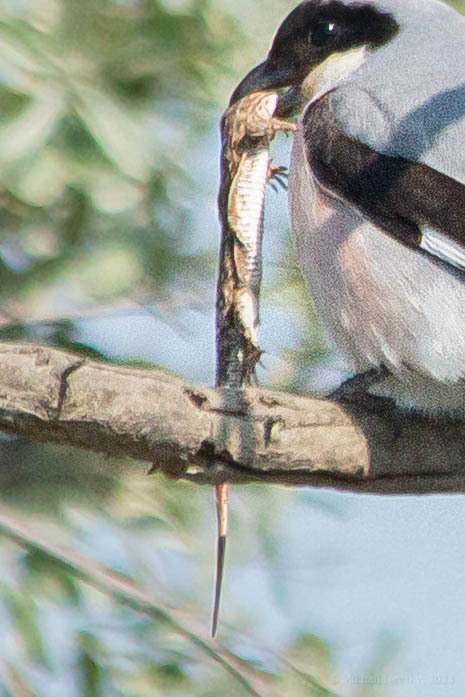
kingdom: Animalia
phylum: Chordata
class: Squamata
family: Lacertidae
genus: Eremias
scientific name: Eremias arguta
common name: Racerunner
